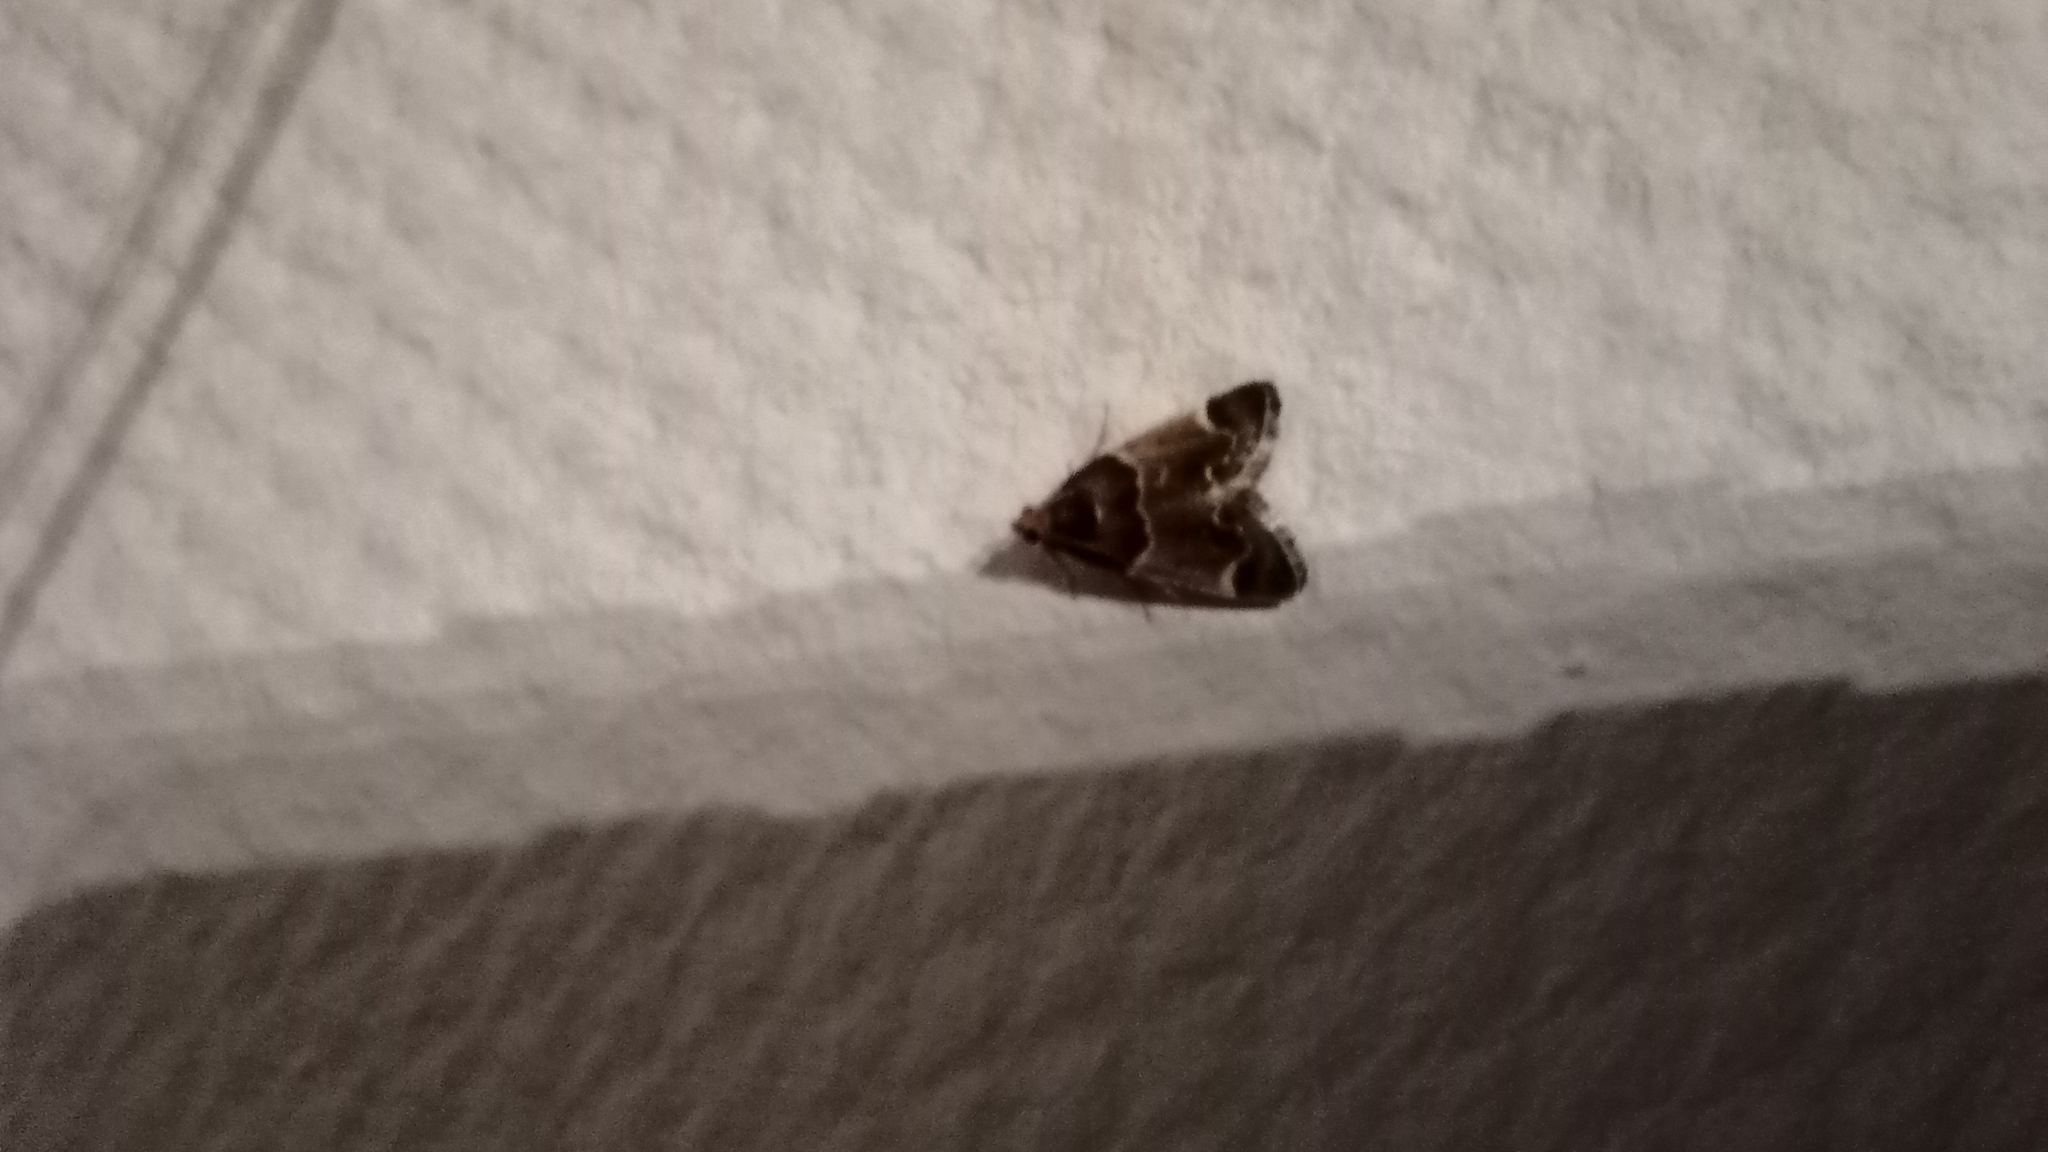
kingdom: Animalia
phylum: Arthropoda
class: Insecta
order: Lepidoptera
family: Pyralidae
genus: Pyralis
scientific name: Pyralis farinalis
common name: Meal moth
